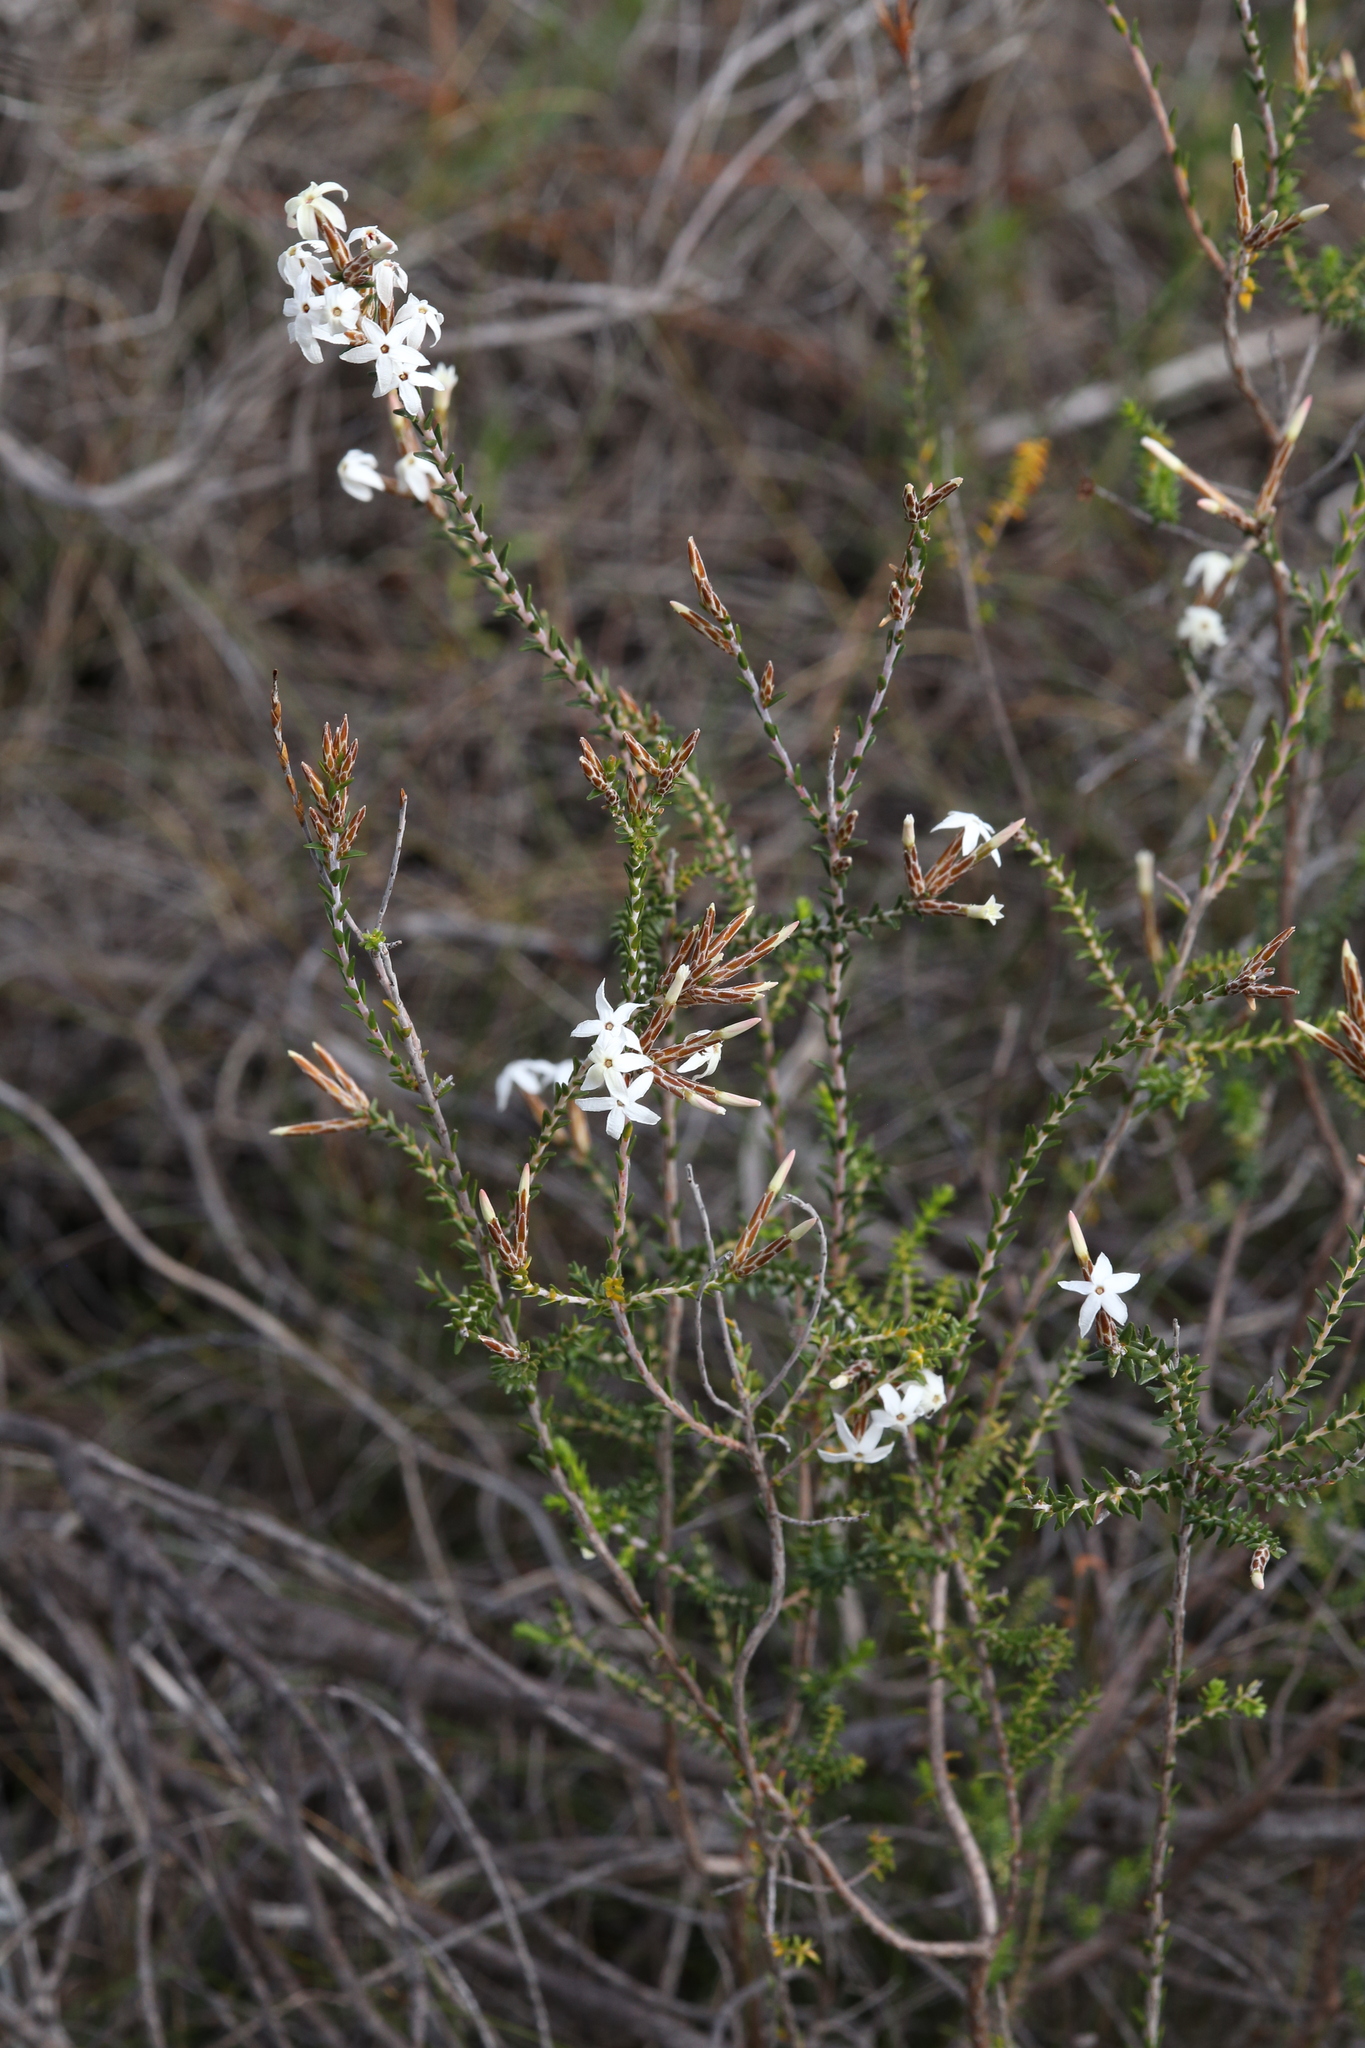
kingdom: Plantae
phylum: Tracheophyta
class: Magnoliopsida
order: Ericales
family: Ericaceae
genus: Lysinema
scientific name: Lysinema pentapetalum
